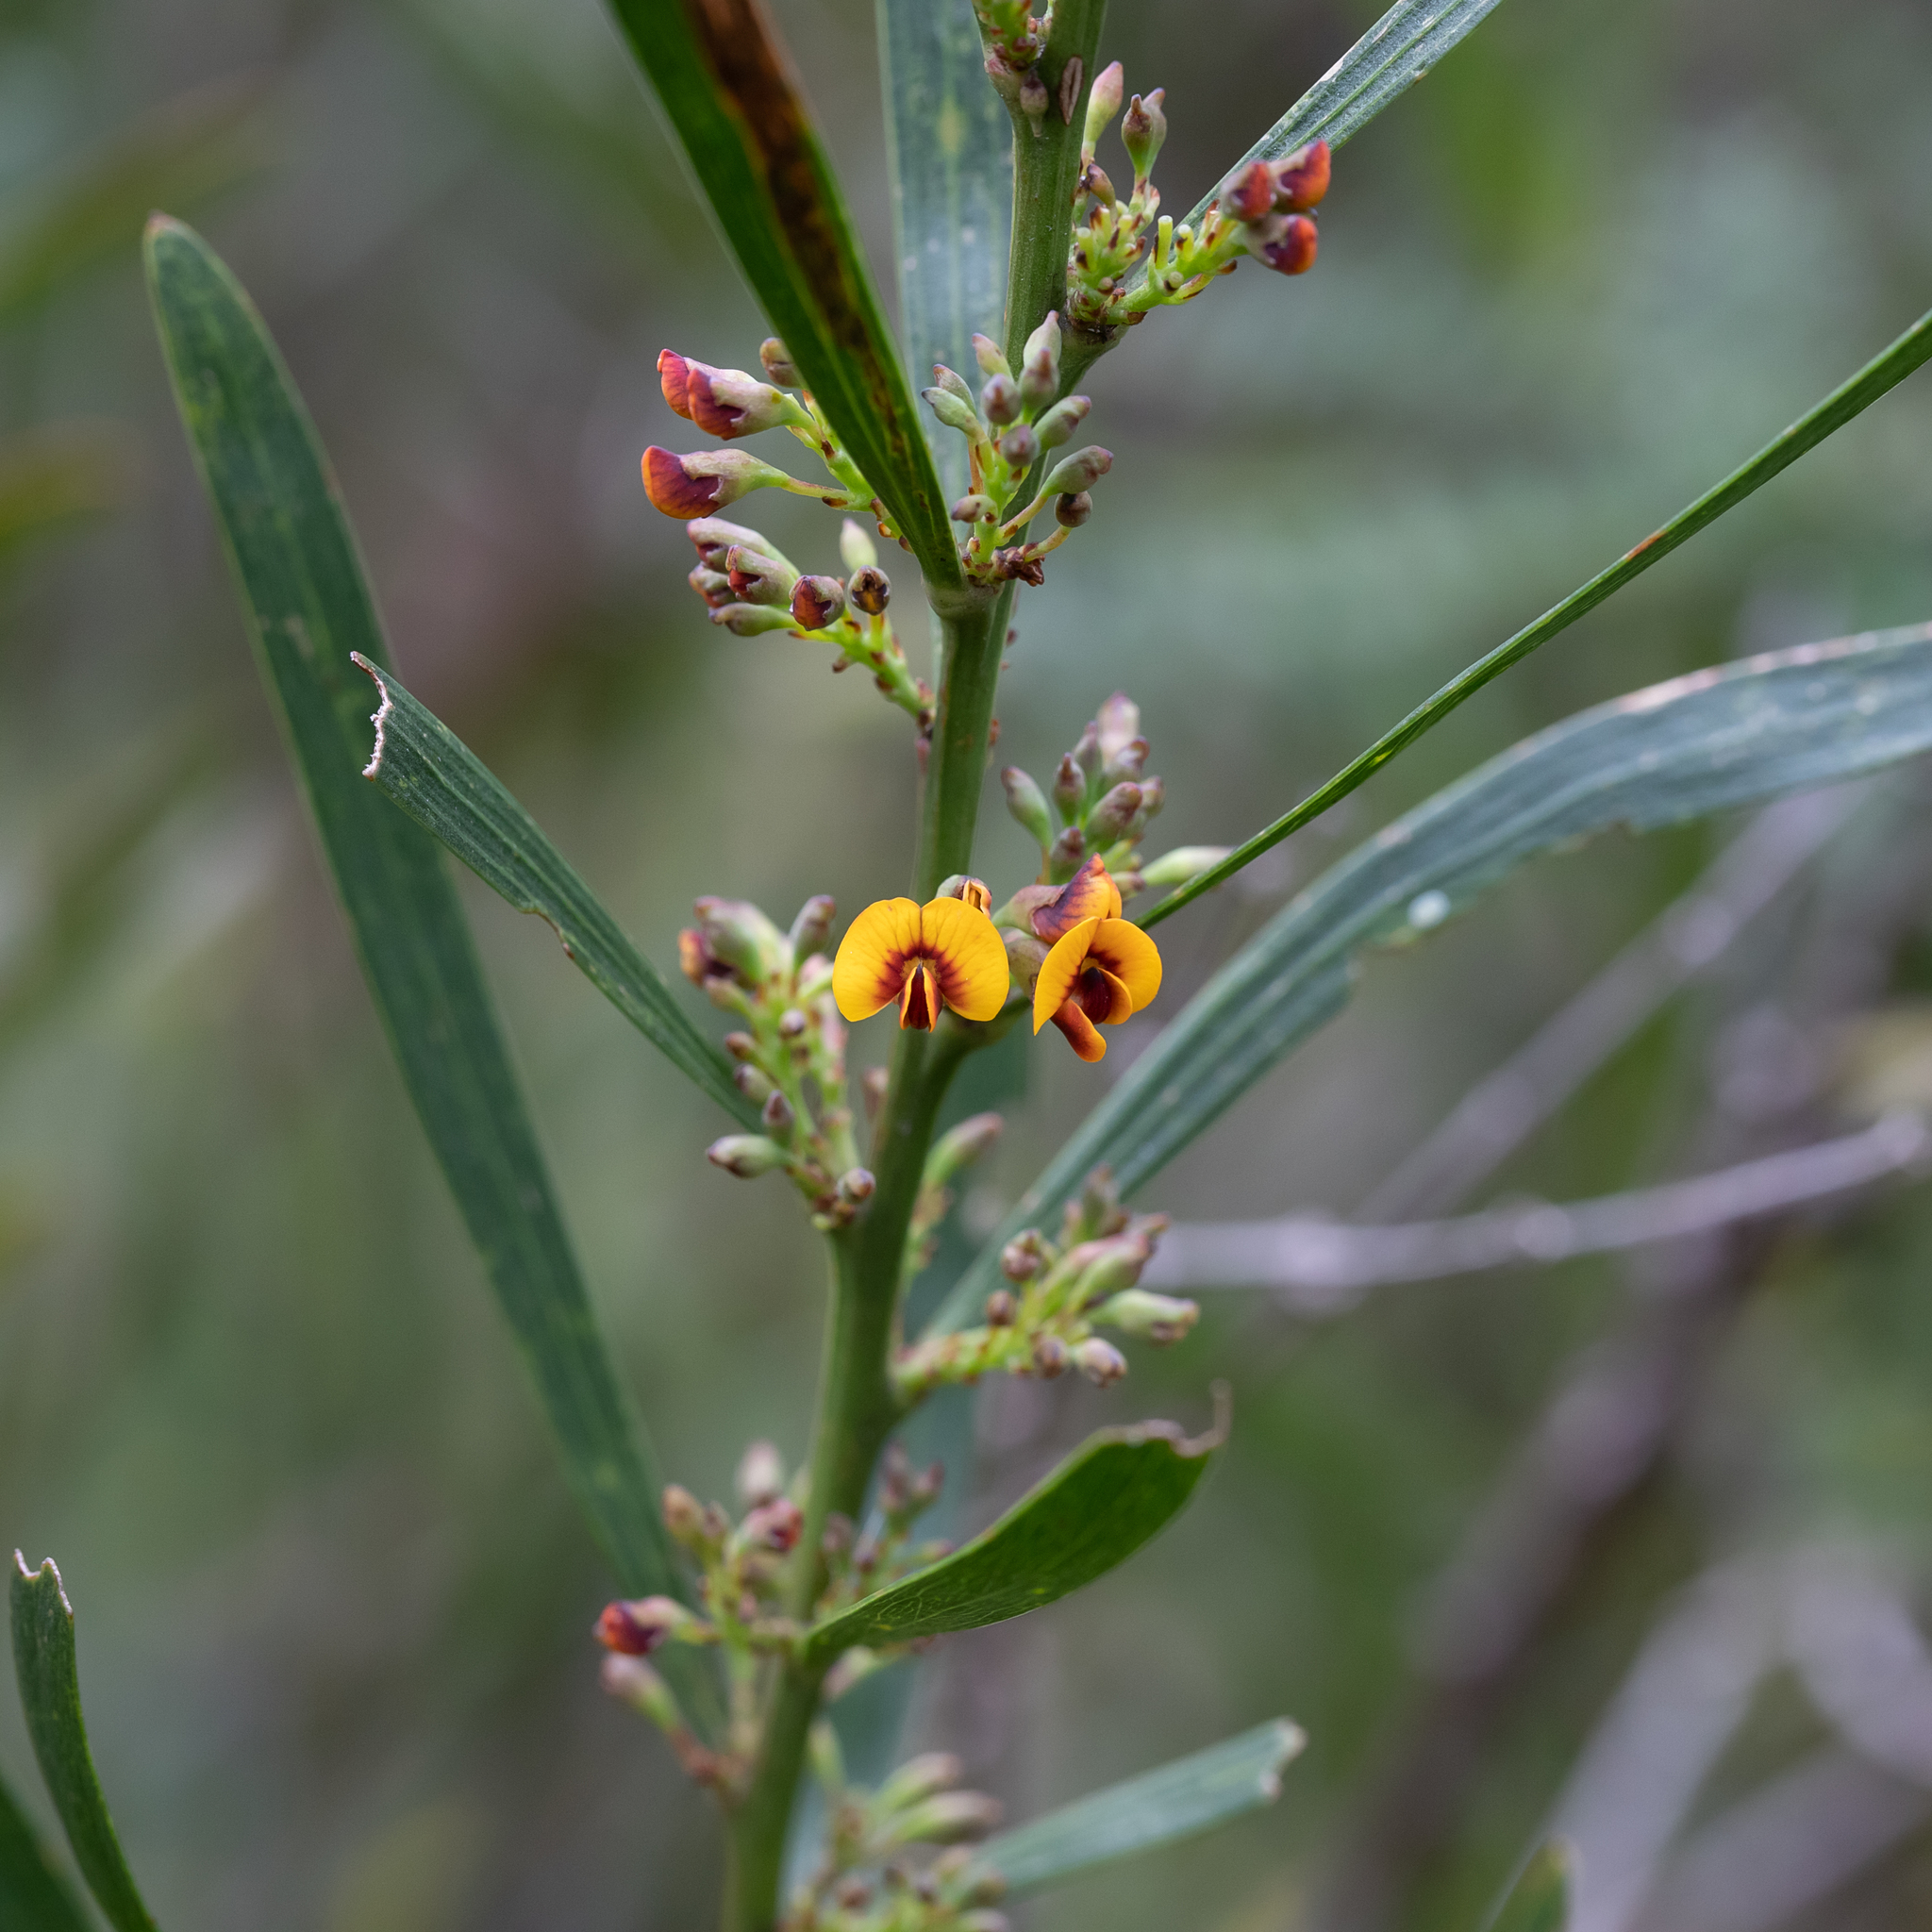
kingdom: Plantae
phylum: Tracheophyta
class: Magnoliopsida
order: Fabales
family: Fabaceae
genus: Daviesia
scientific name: Daviesia leptophylla
